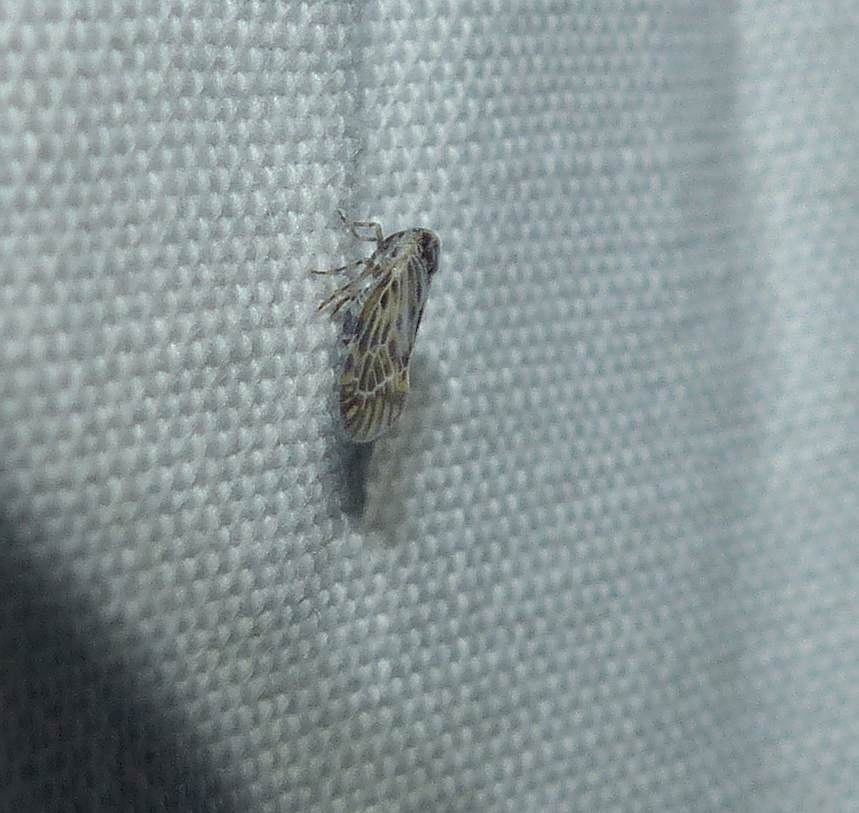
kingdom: Animalia
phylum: Arthropoda
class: Insecta
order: Hemiptera
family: Derbidae
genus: Cedusa
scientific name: Cedusa maculata
